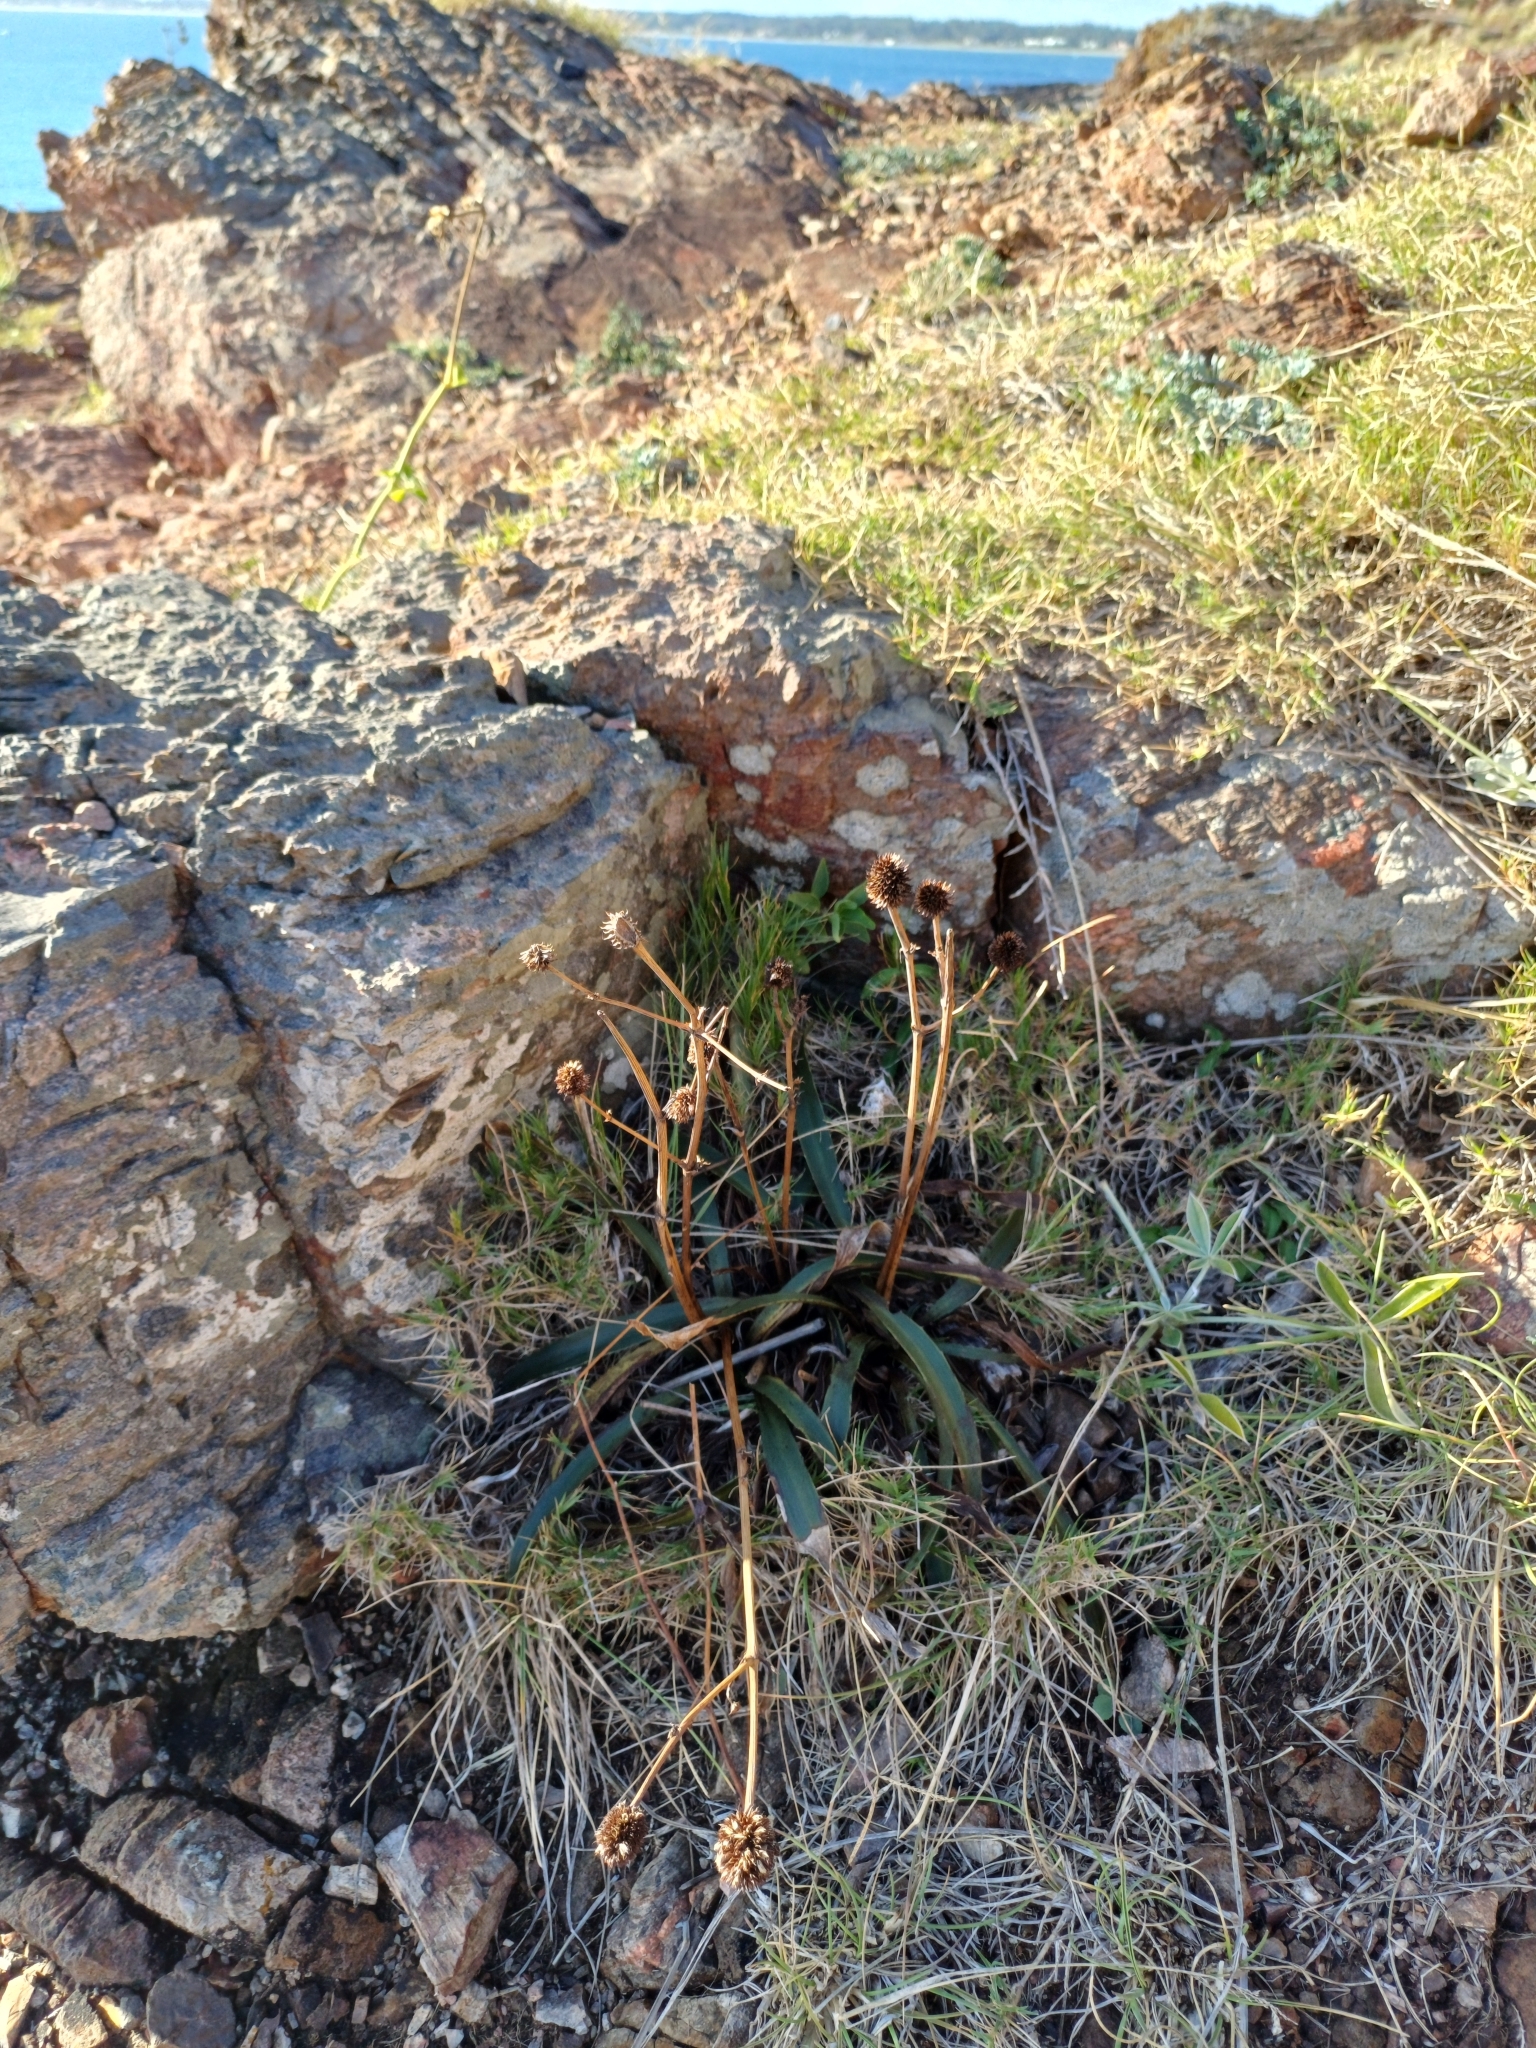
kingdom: Plantae
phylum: Tracheophyta
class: Magnoliopsida
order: Apiales
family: Apiaceae
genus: Eryngium
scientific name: Eryngium sanguisorba
